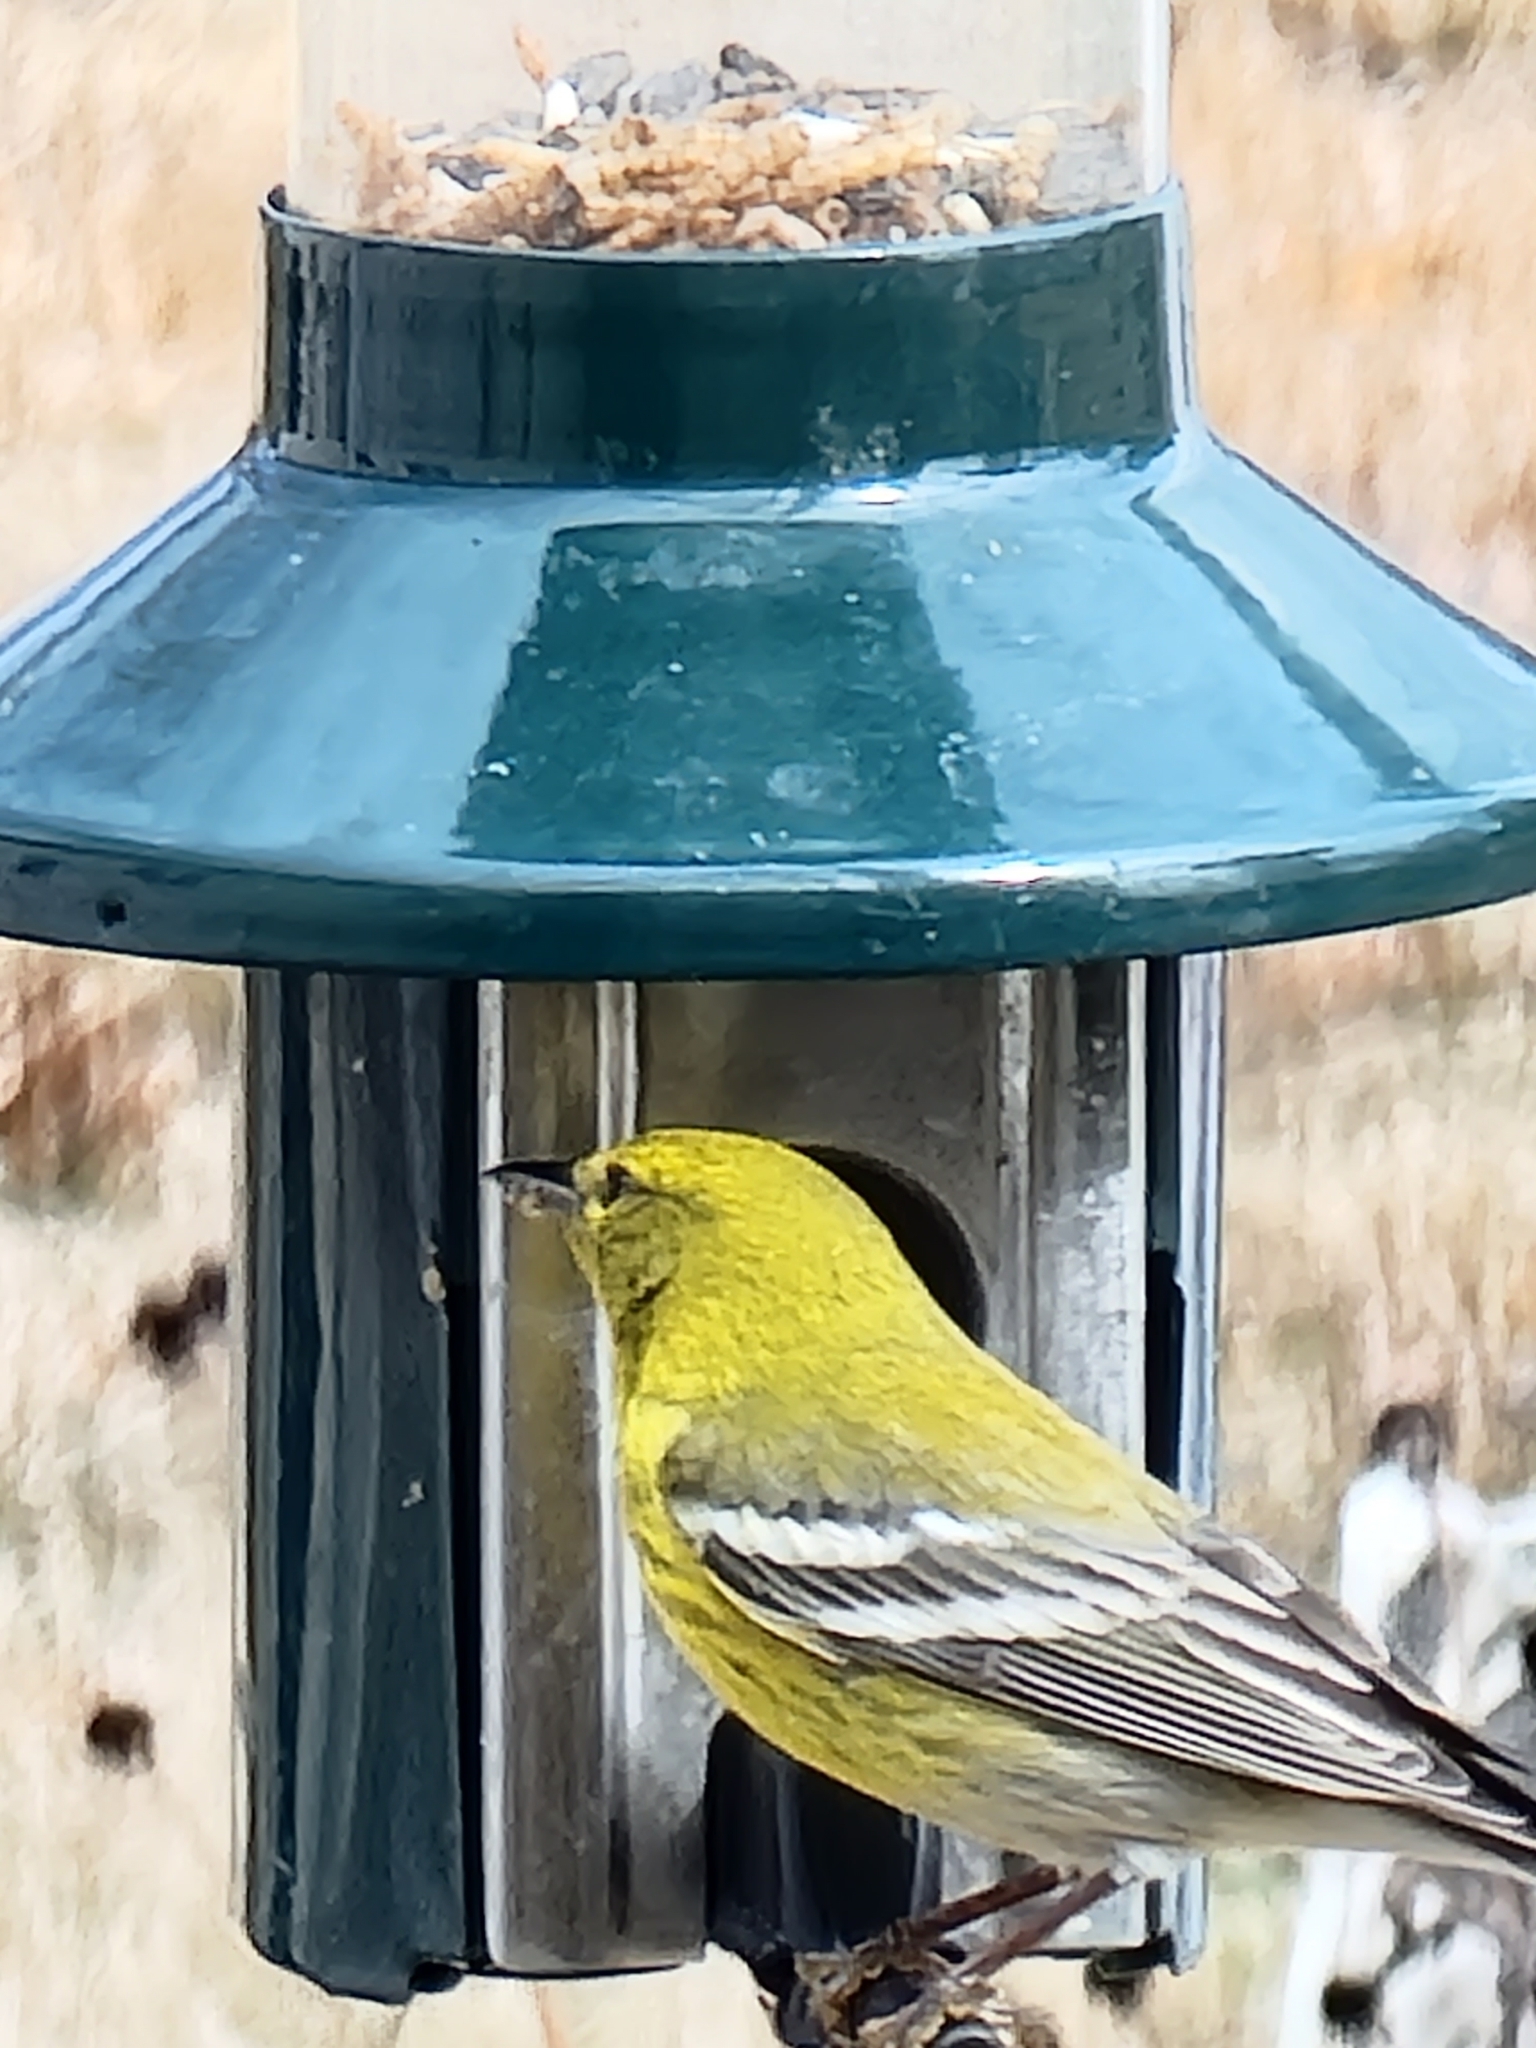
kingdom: Animalia
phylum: Chordata
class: Aves
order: Passeriformes
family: Parulidae
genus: Setophaga
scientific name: Setophaga pinus
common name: Pine warbler
